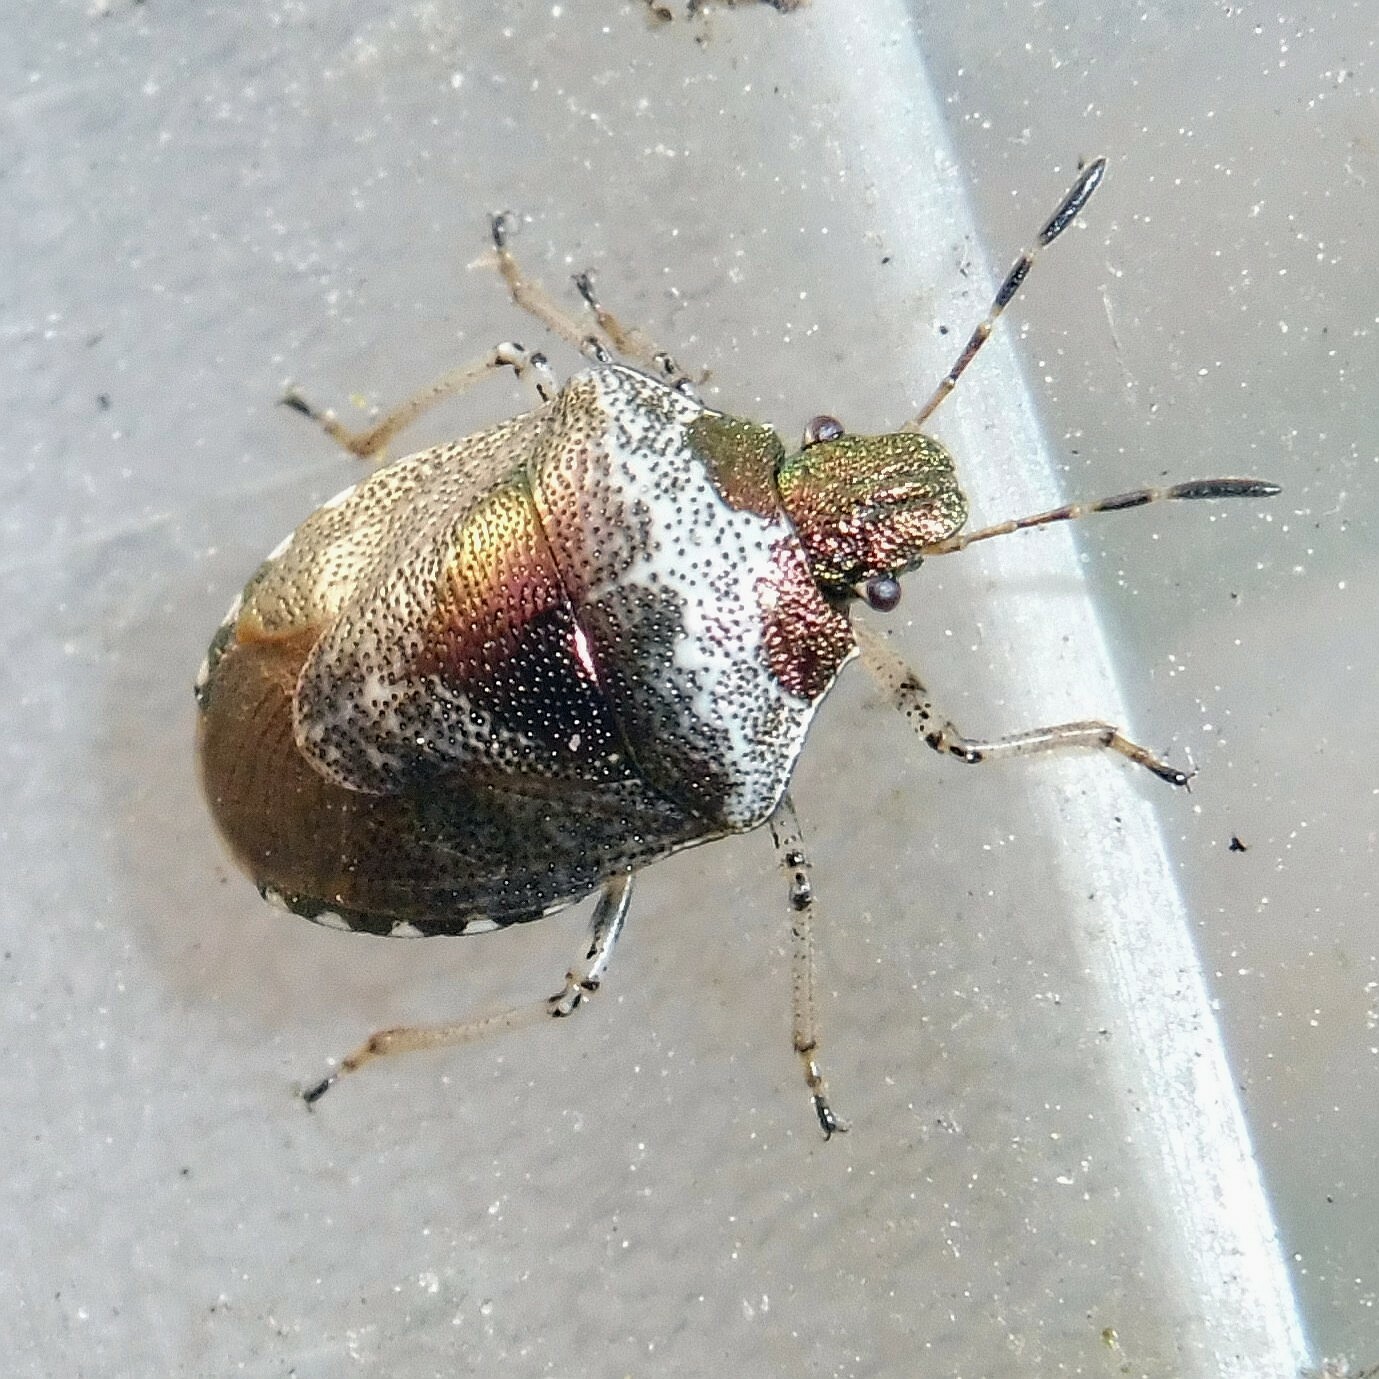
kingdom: Animalia
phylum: Arthropoda
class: Insecta
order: Hemiptera
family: Pentatomidae
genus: Eysarcoris
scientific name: Eysarcoris venustissimus
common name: Woundwort shieldbug
